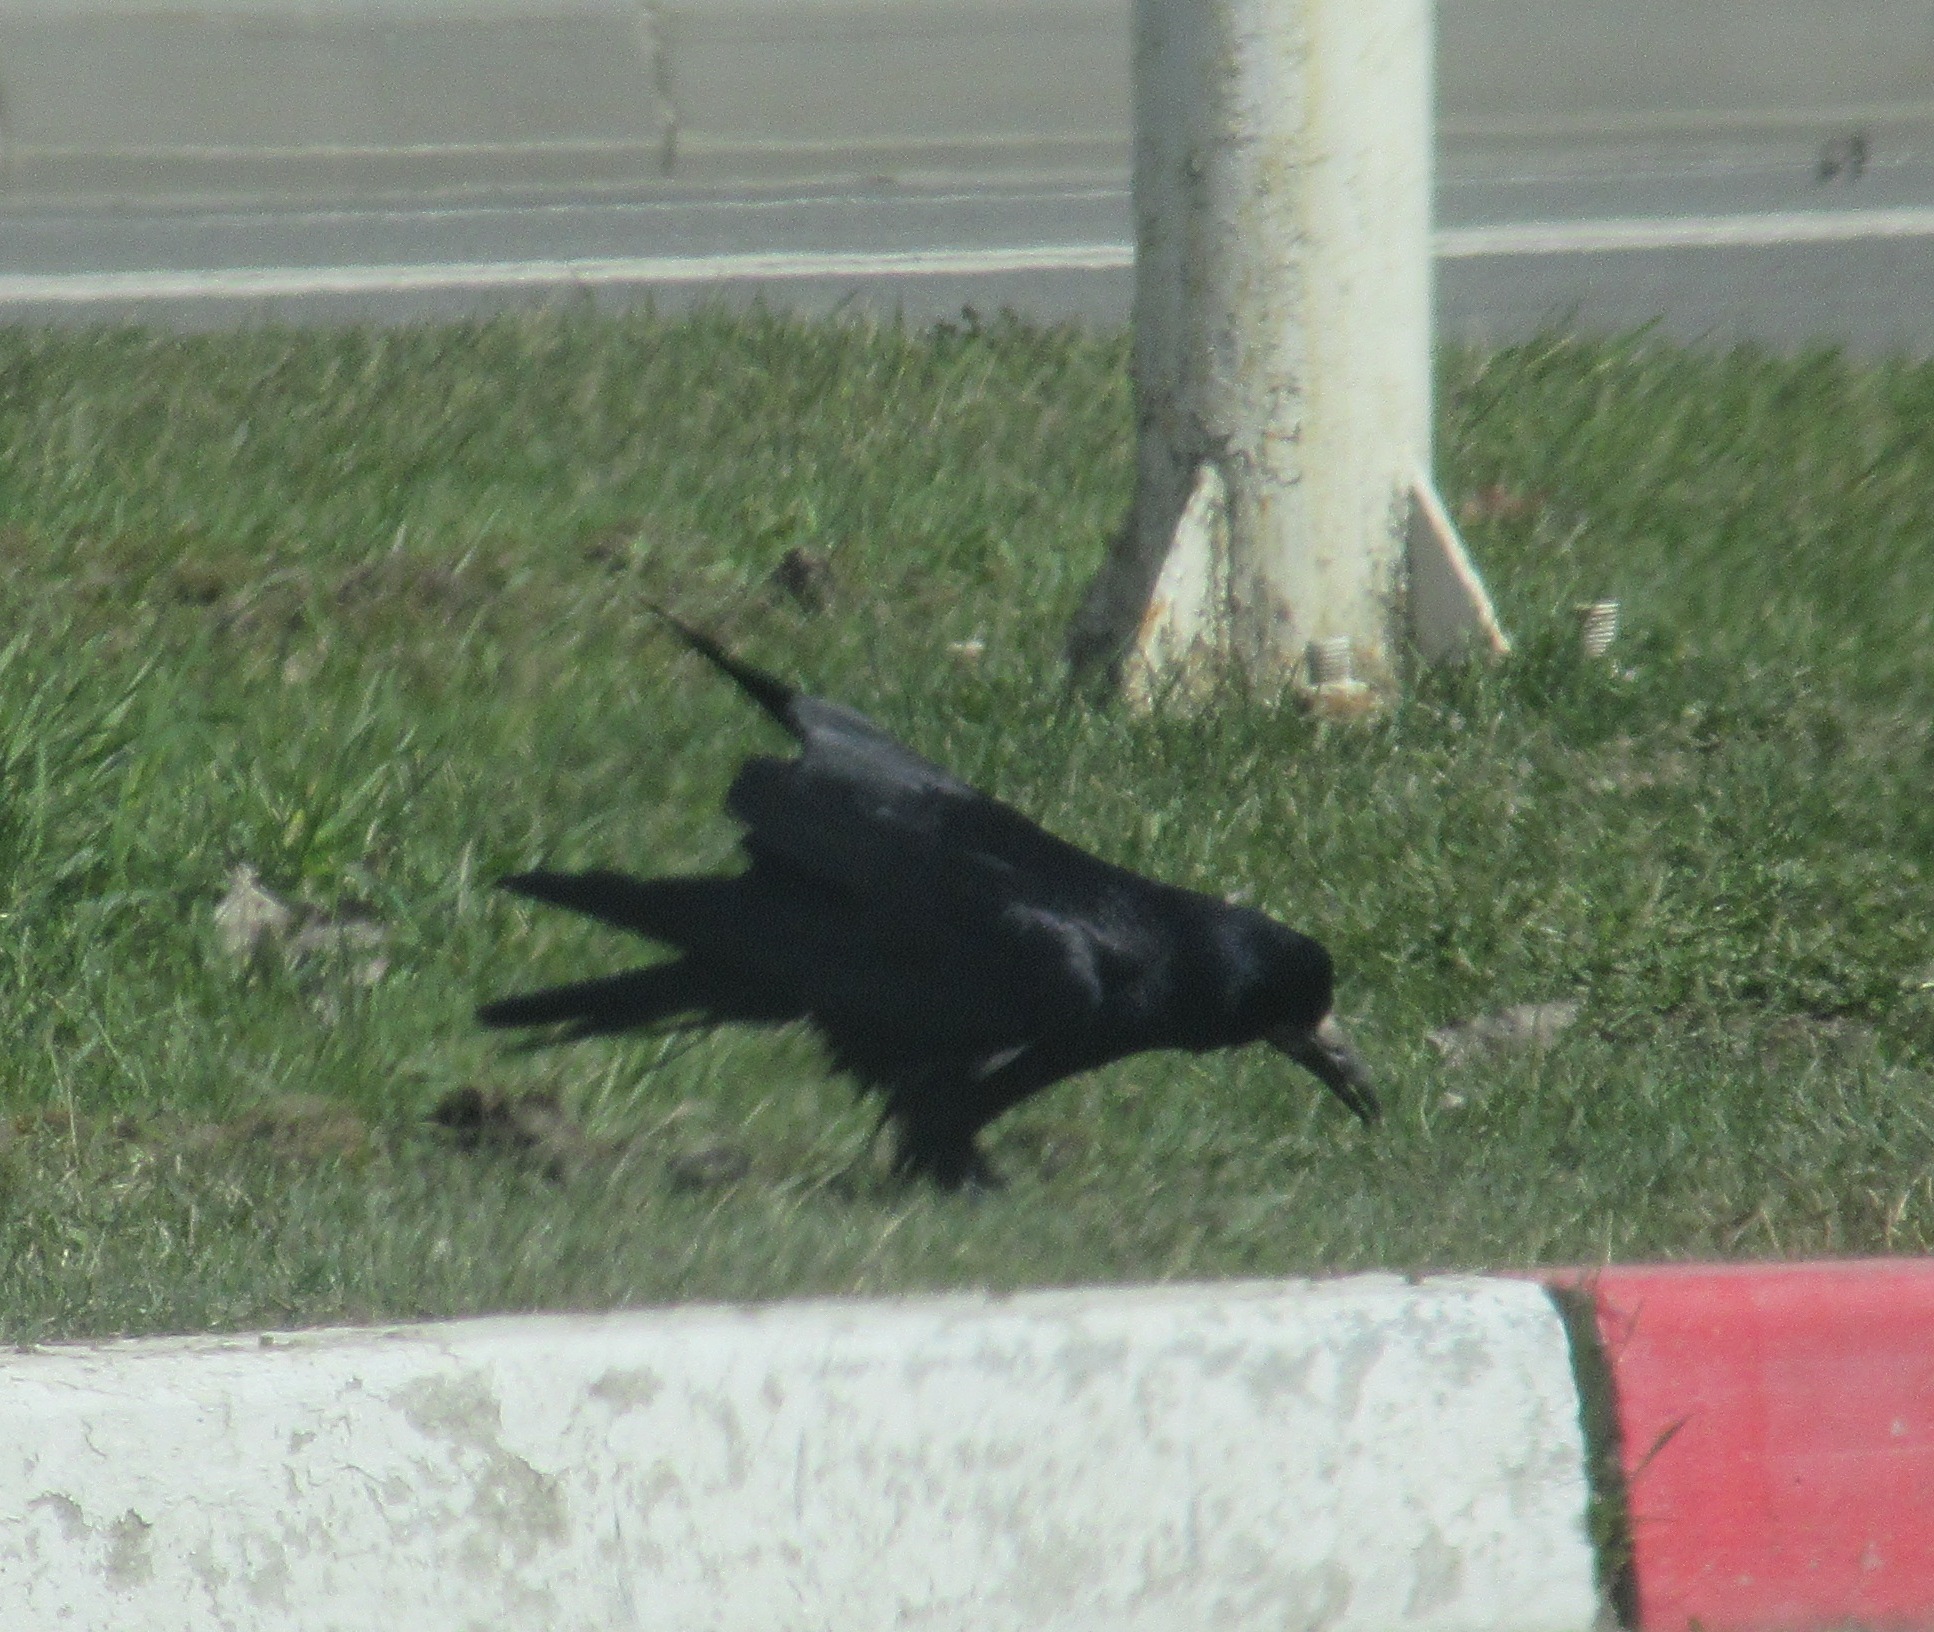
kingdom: Animalia
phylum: Chordata
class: Aves
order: Passeriformes
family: Corvidae
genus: Corvus
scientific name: Corvus frugilegus
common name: Rook
